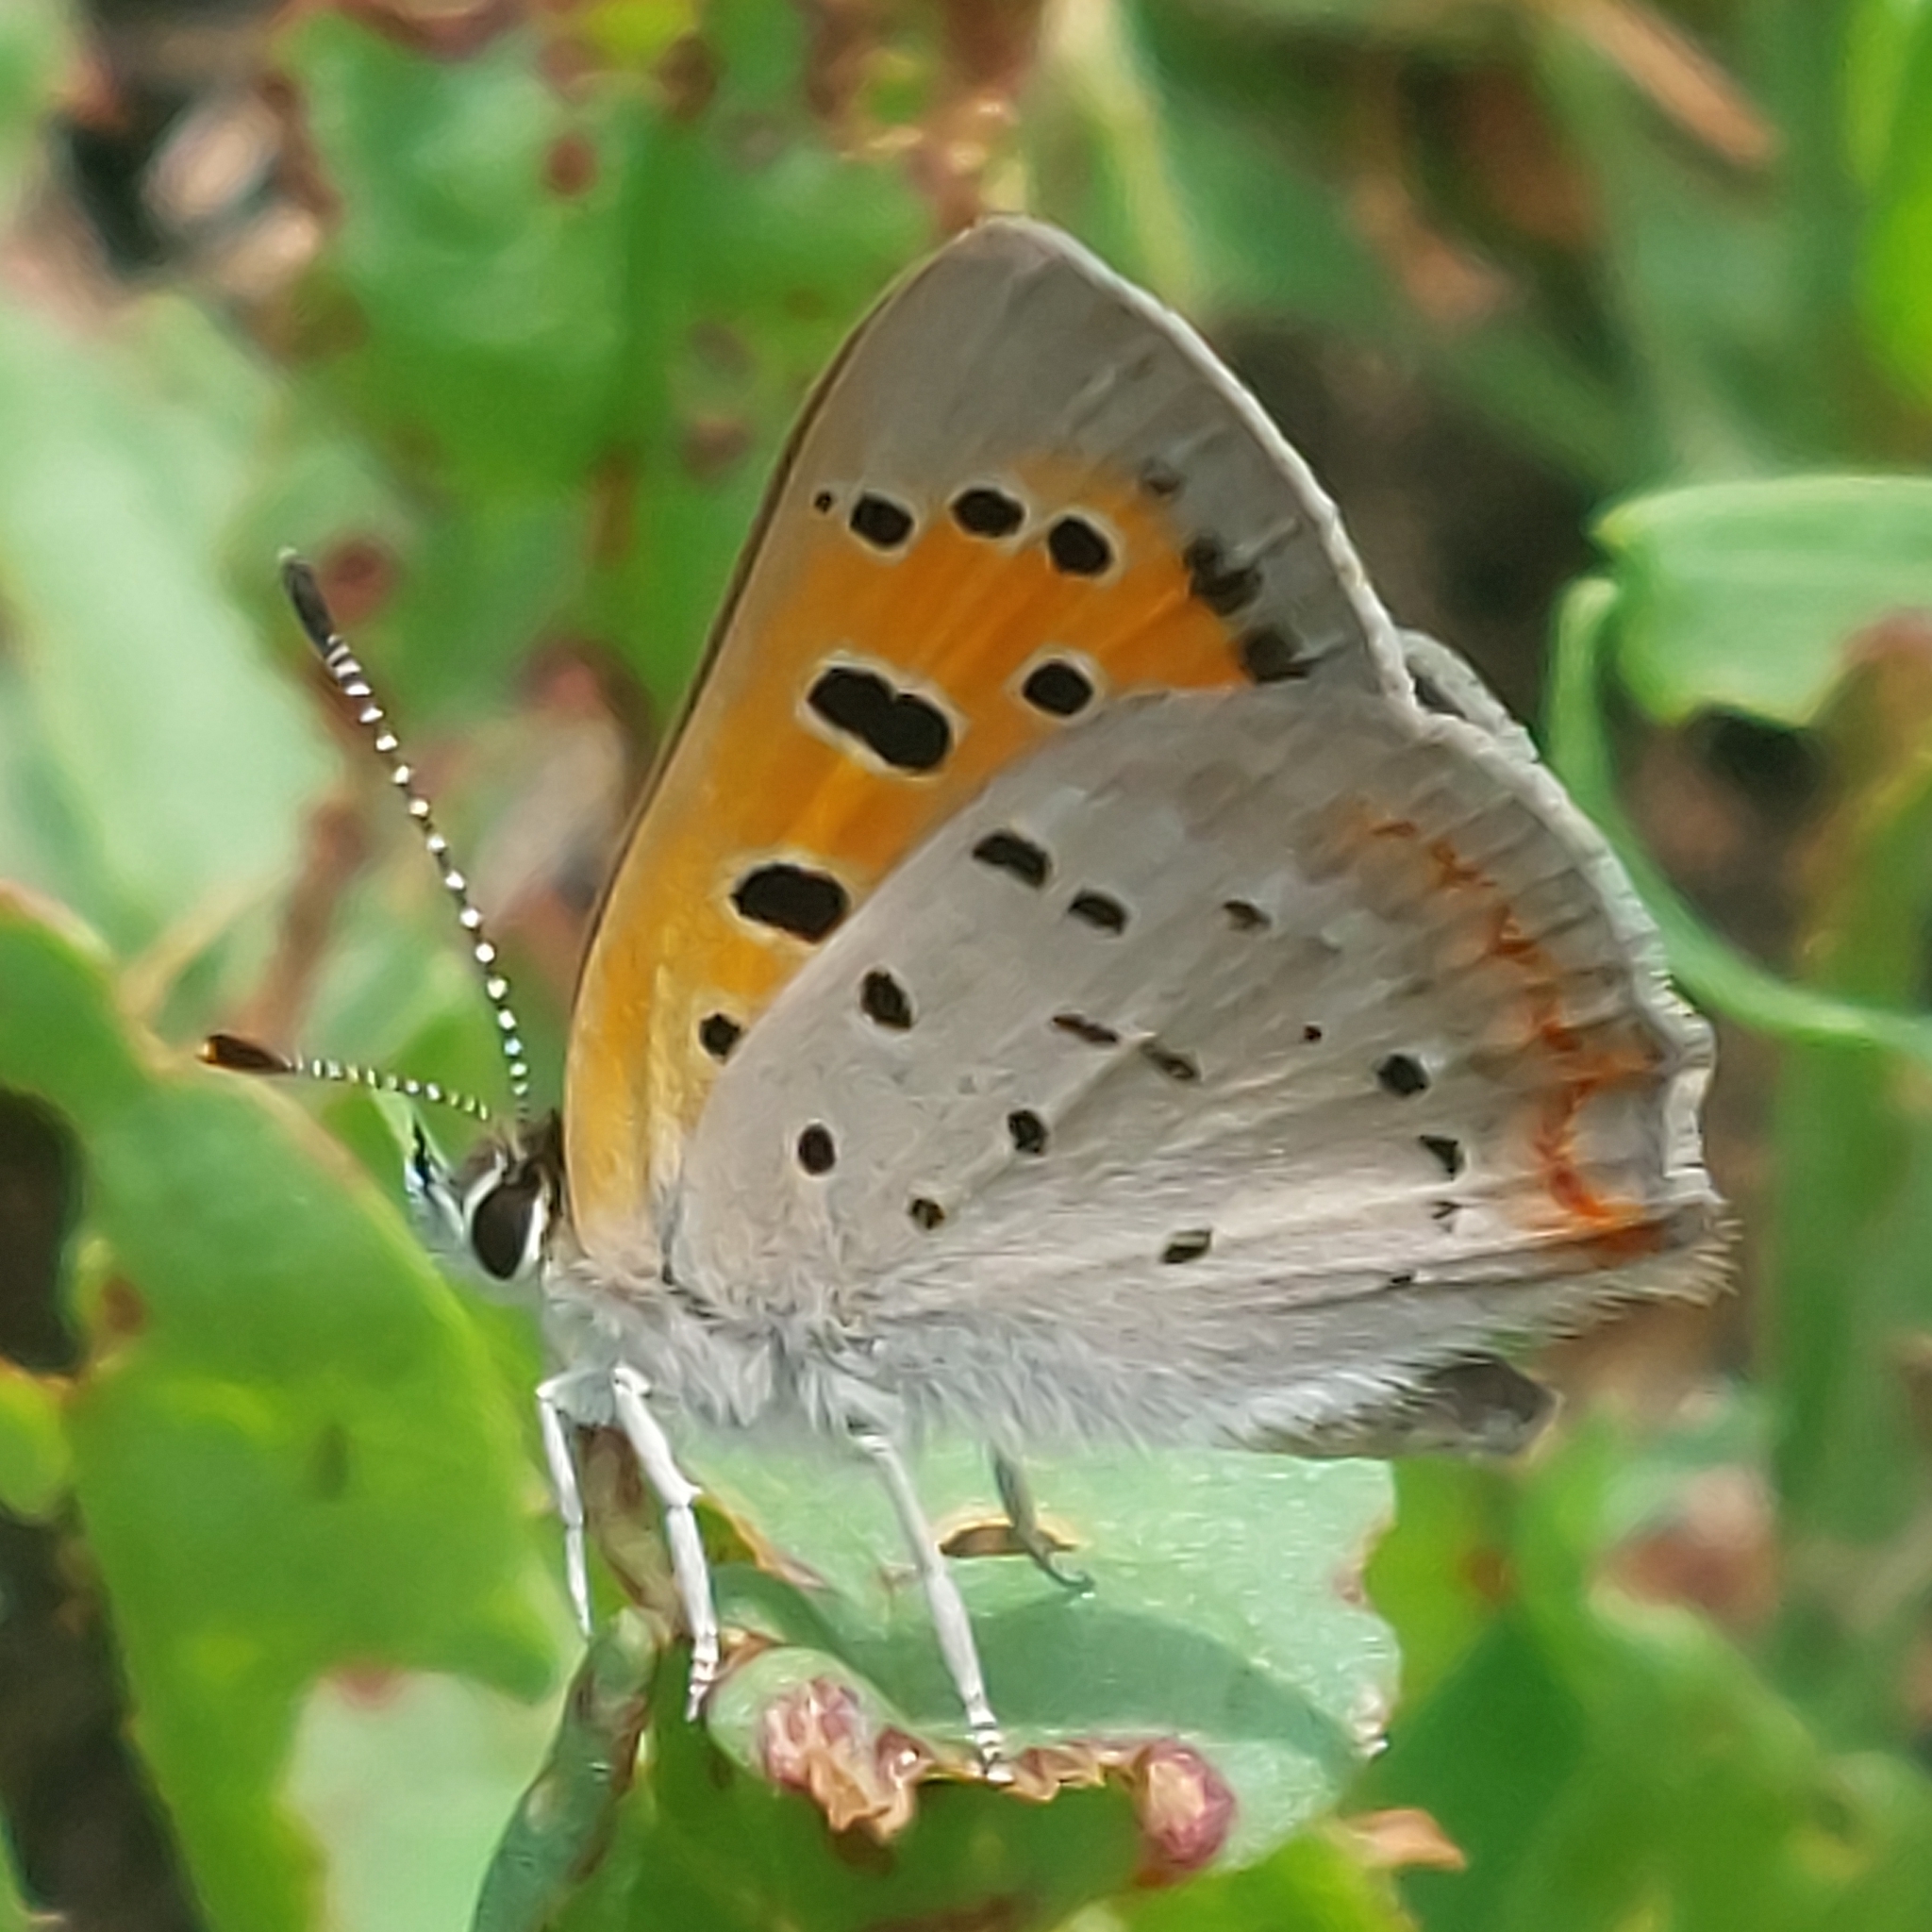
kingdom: Animalia
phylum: Arthropoda
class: Insecta
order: Lepidoptera
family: Lycaenidae
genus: Lycaena
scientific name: Lycaena hypophlaeas
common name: American copper
